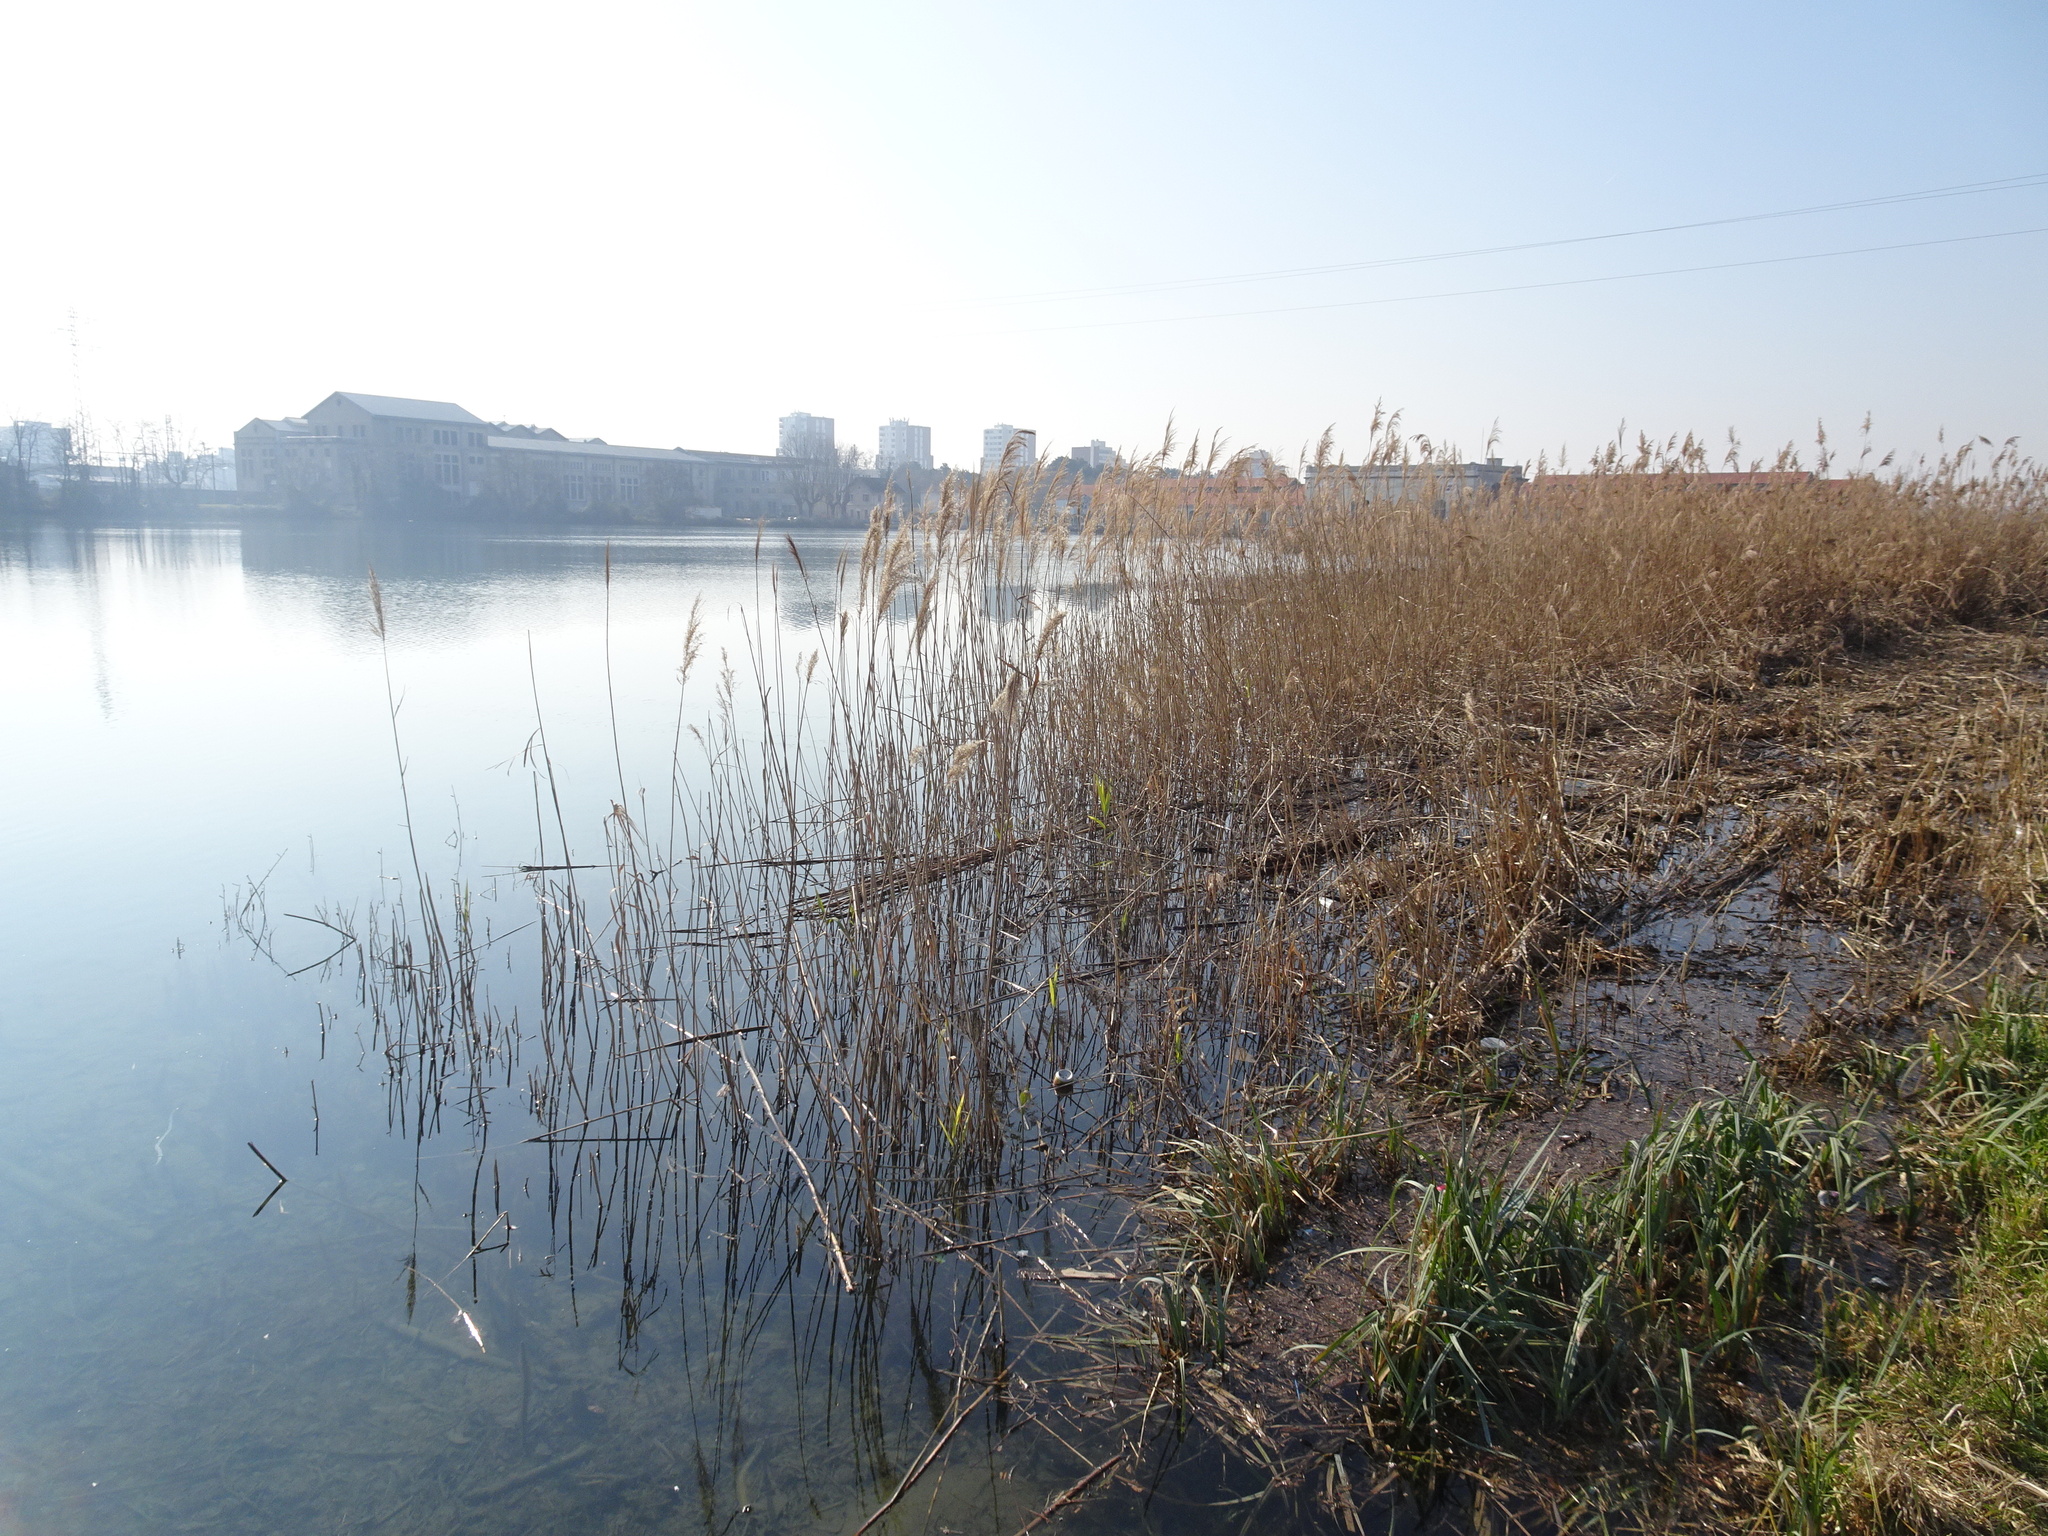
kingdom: Plantae
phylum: Tracheophyta
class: Liliopsida
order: Poales
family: Poaceae
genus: Phragmites
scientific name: Phragmites australis
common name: Common reed
